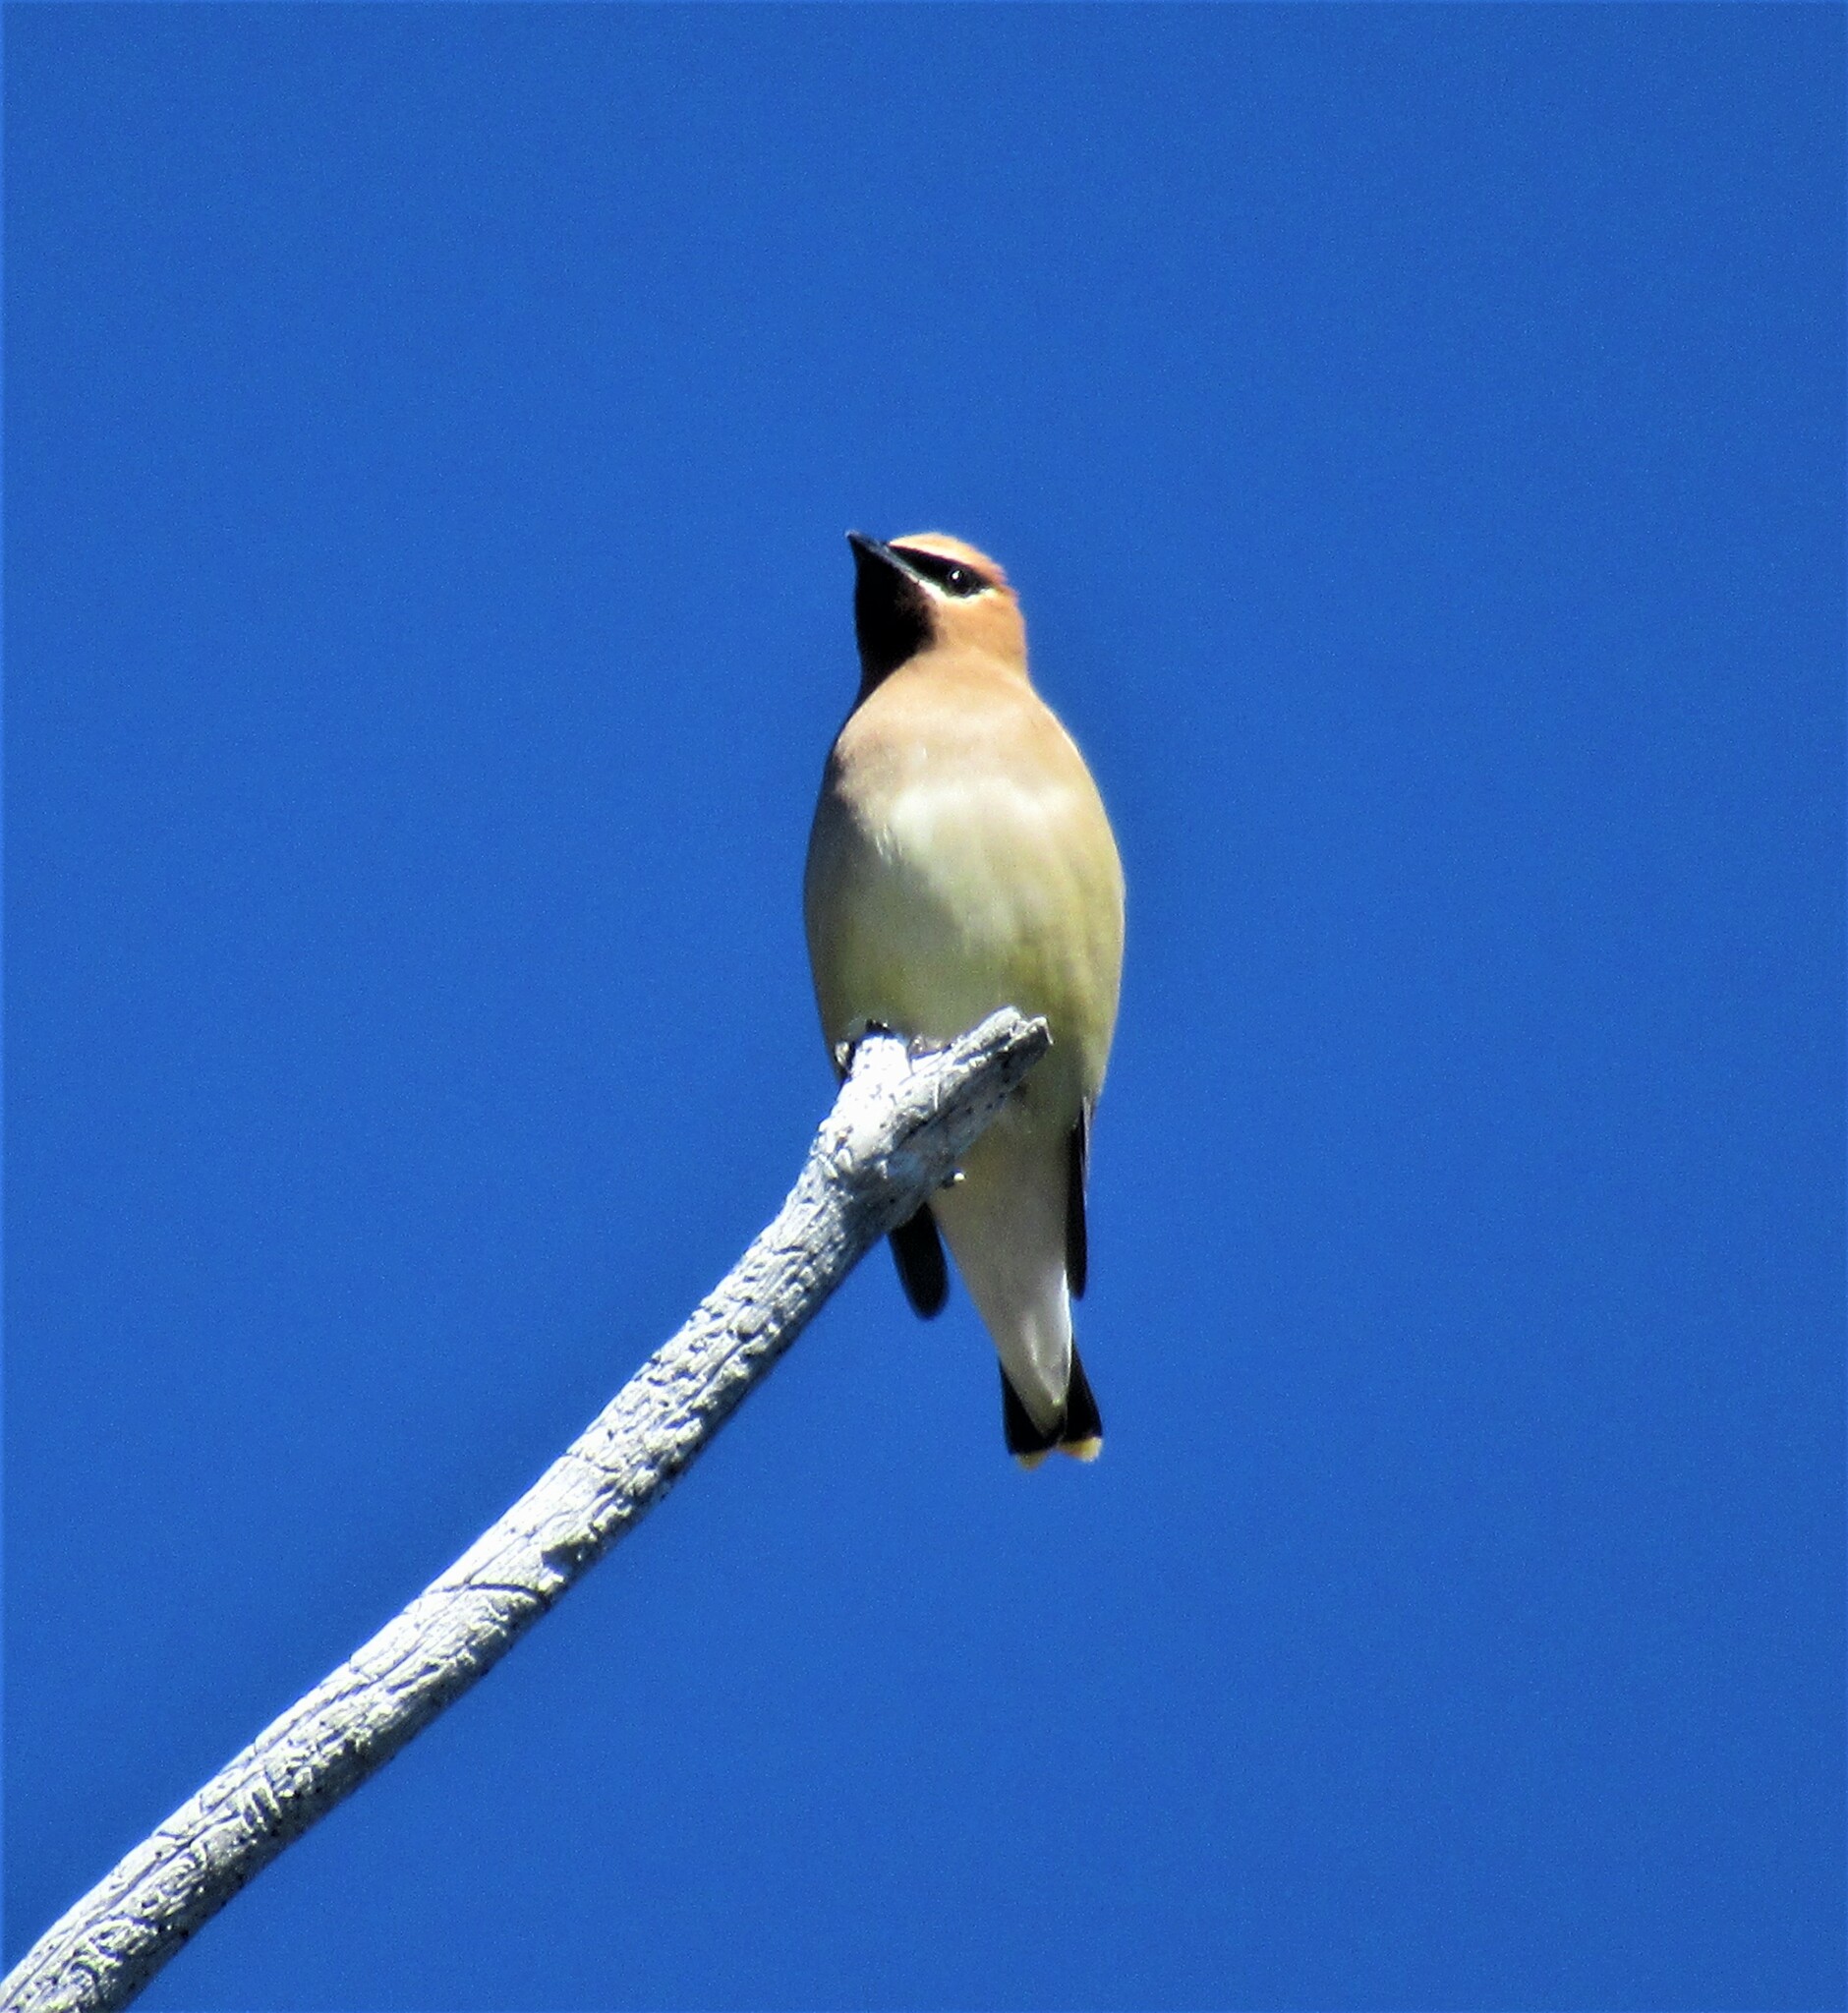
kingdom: Animalia
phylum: Chordata
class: Aves
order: Passeriformes
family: Bombycillidae
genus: Bombycilla
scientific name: Bombycilla cedrorum
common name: Cedar waxwing
